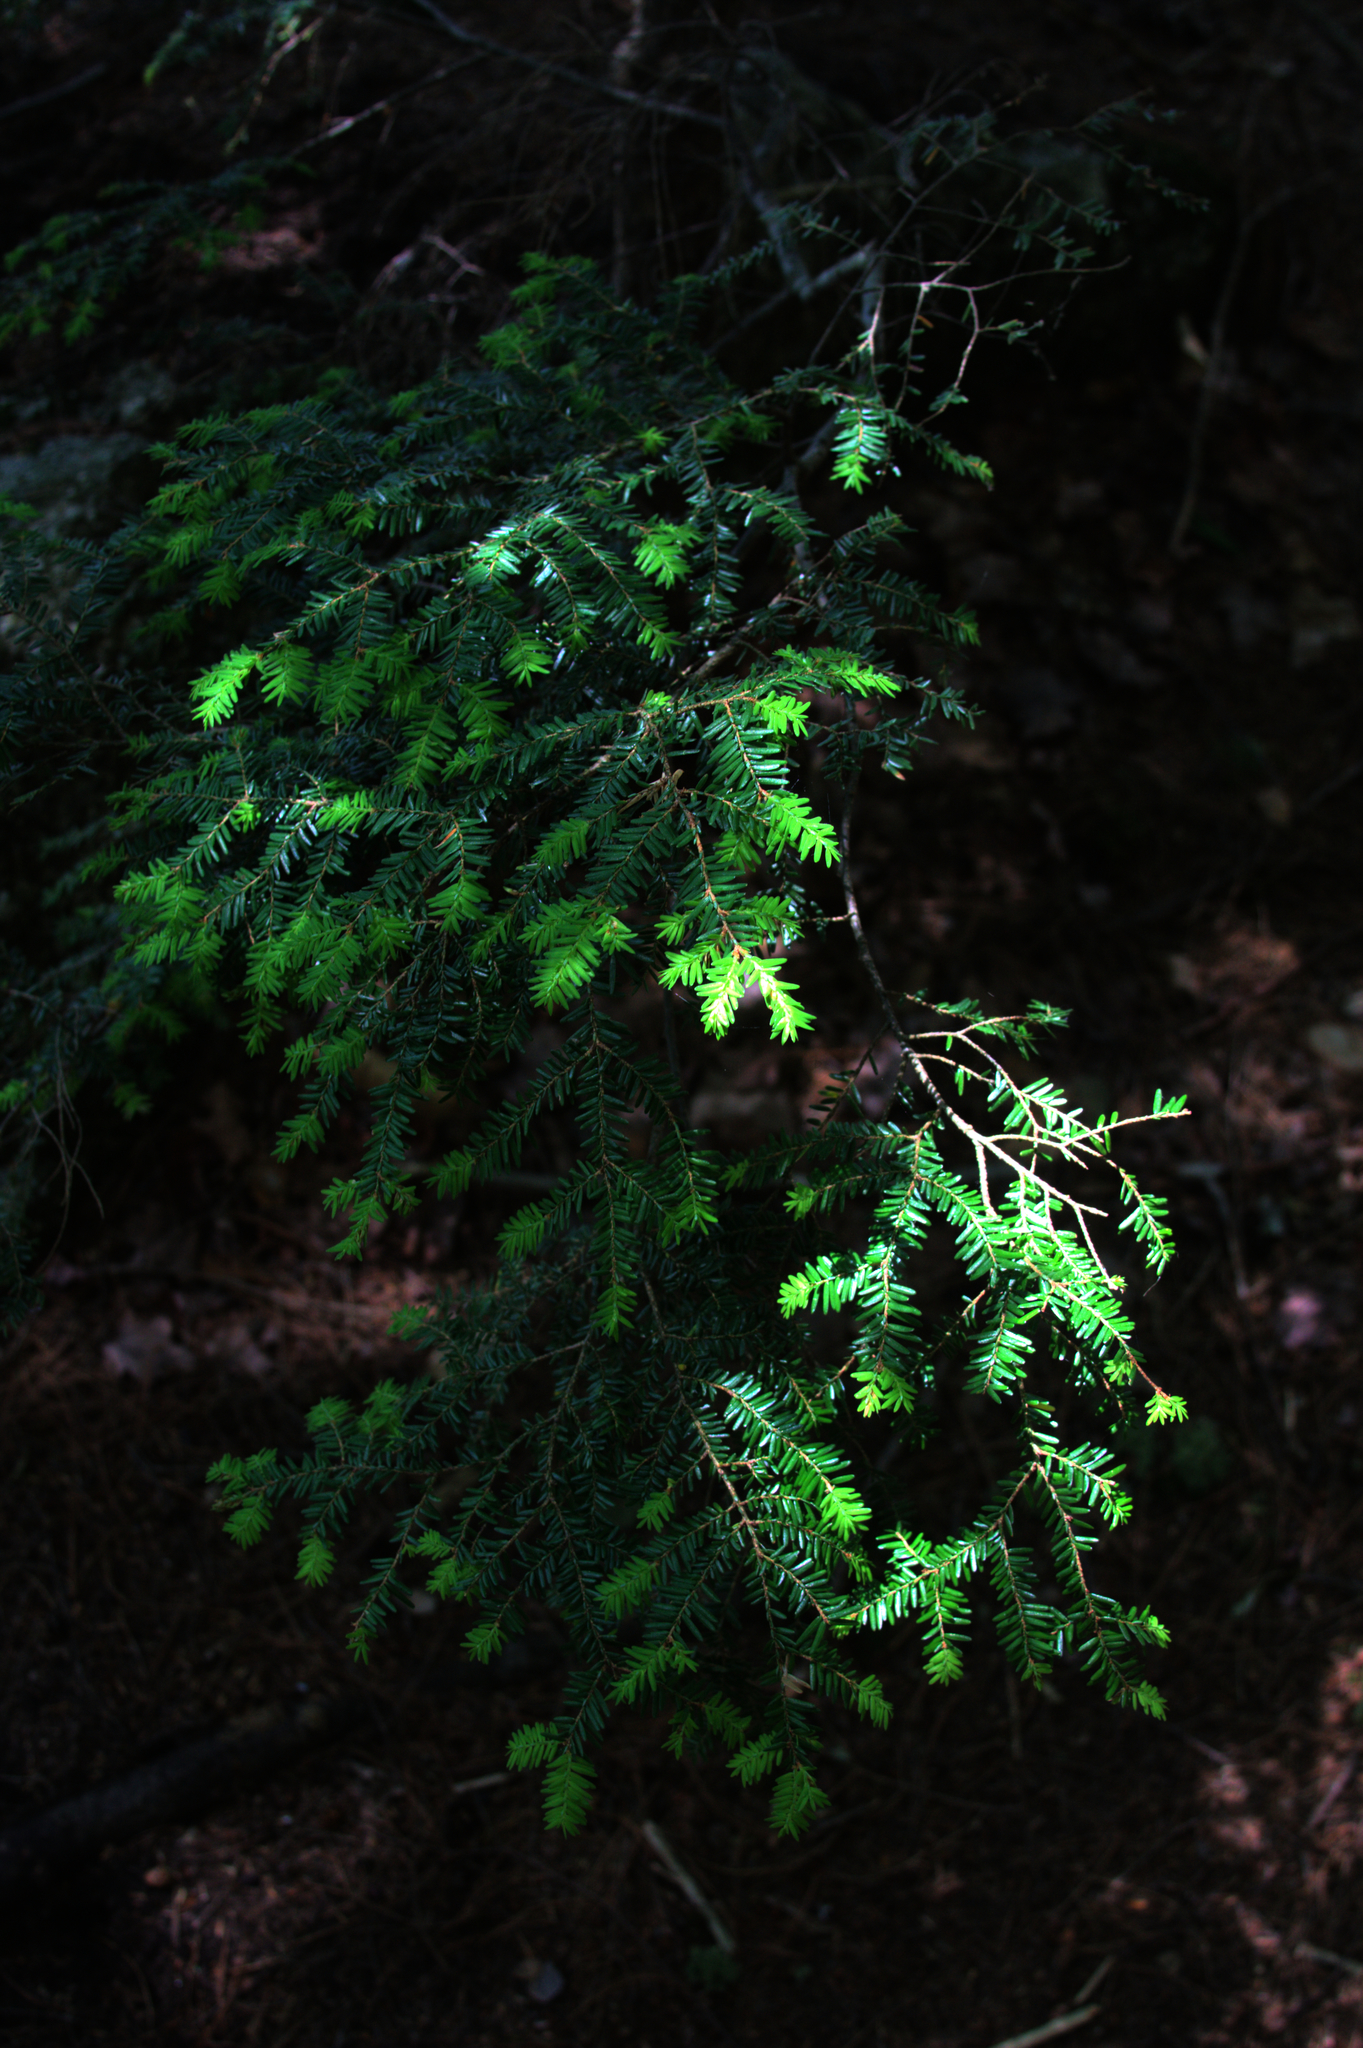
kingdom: Plantae
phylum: Tracheophyta
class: Pinopsida
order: Pinales
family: Pinaceae
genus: Tsuga
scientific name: Tsuga canadensis
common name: Eastern hemlock
